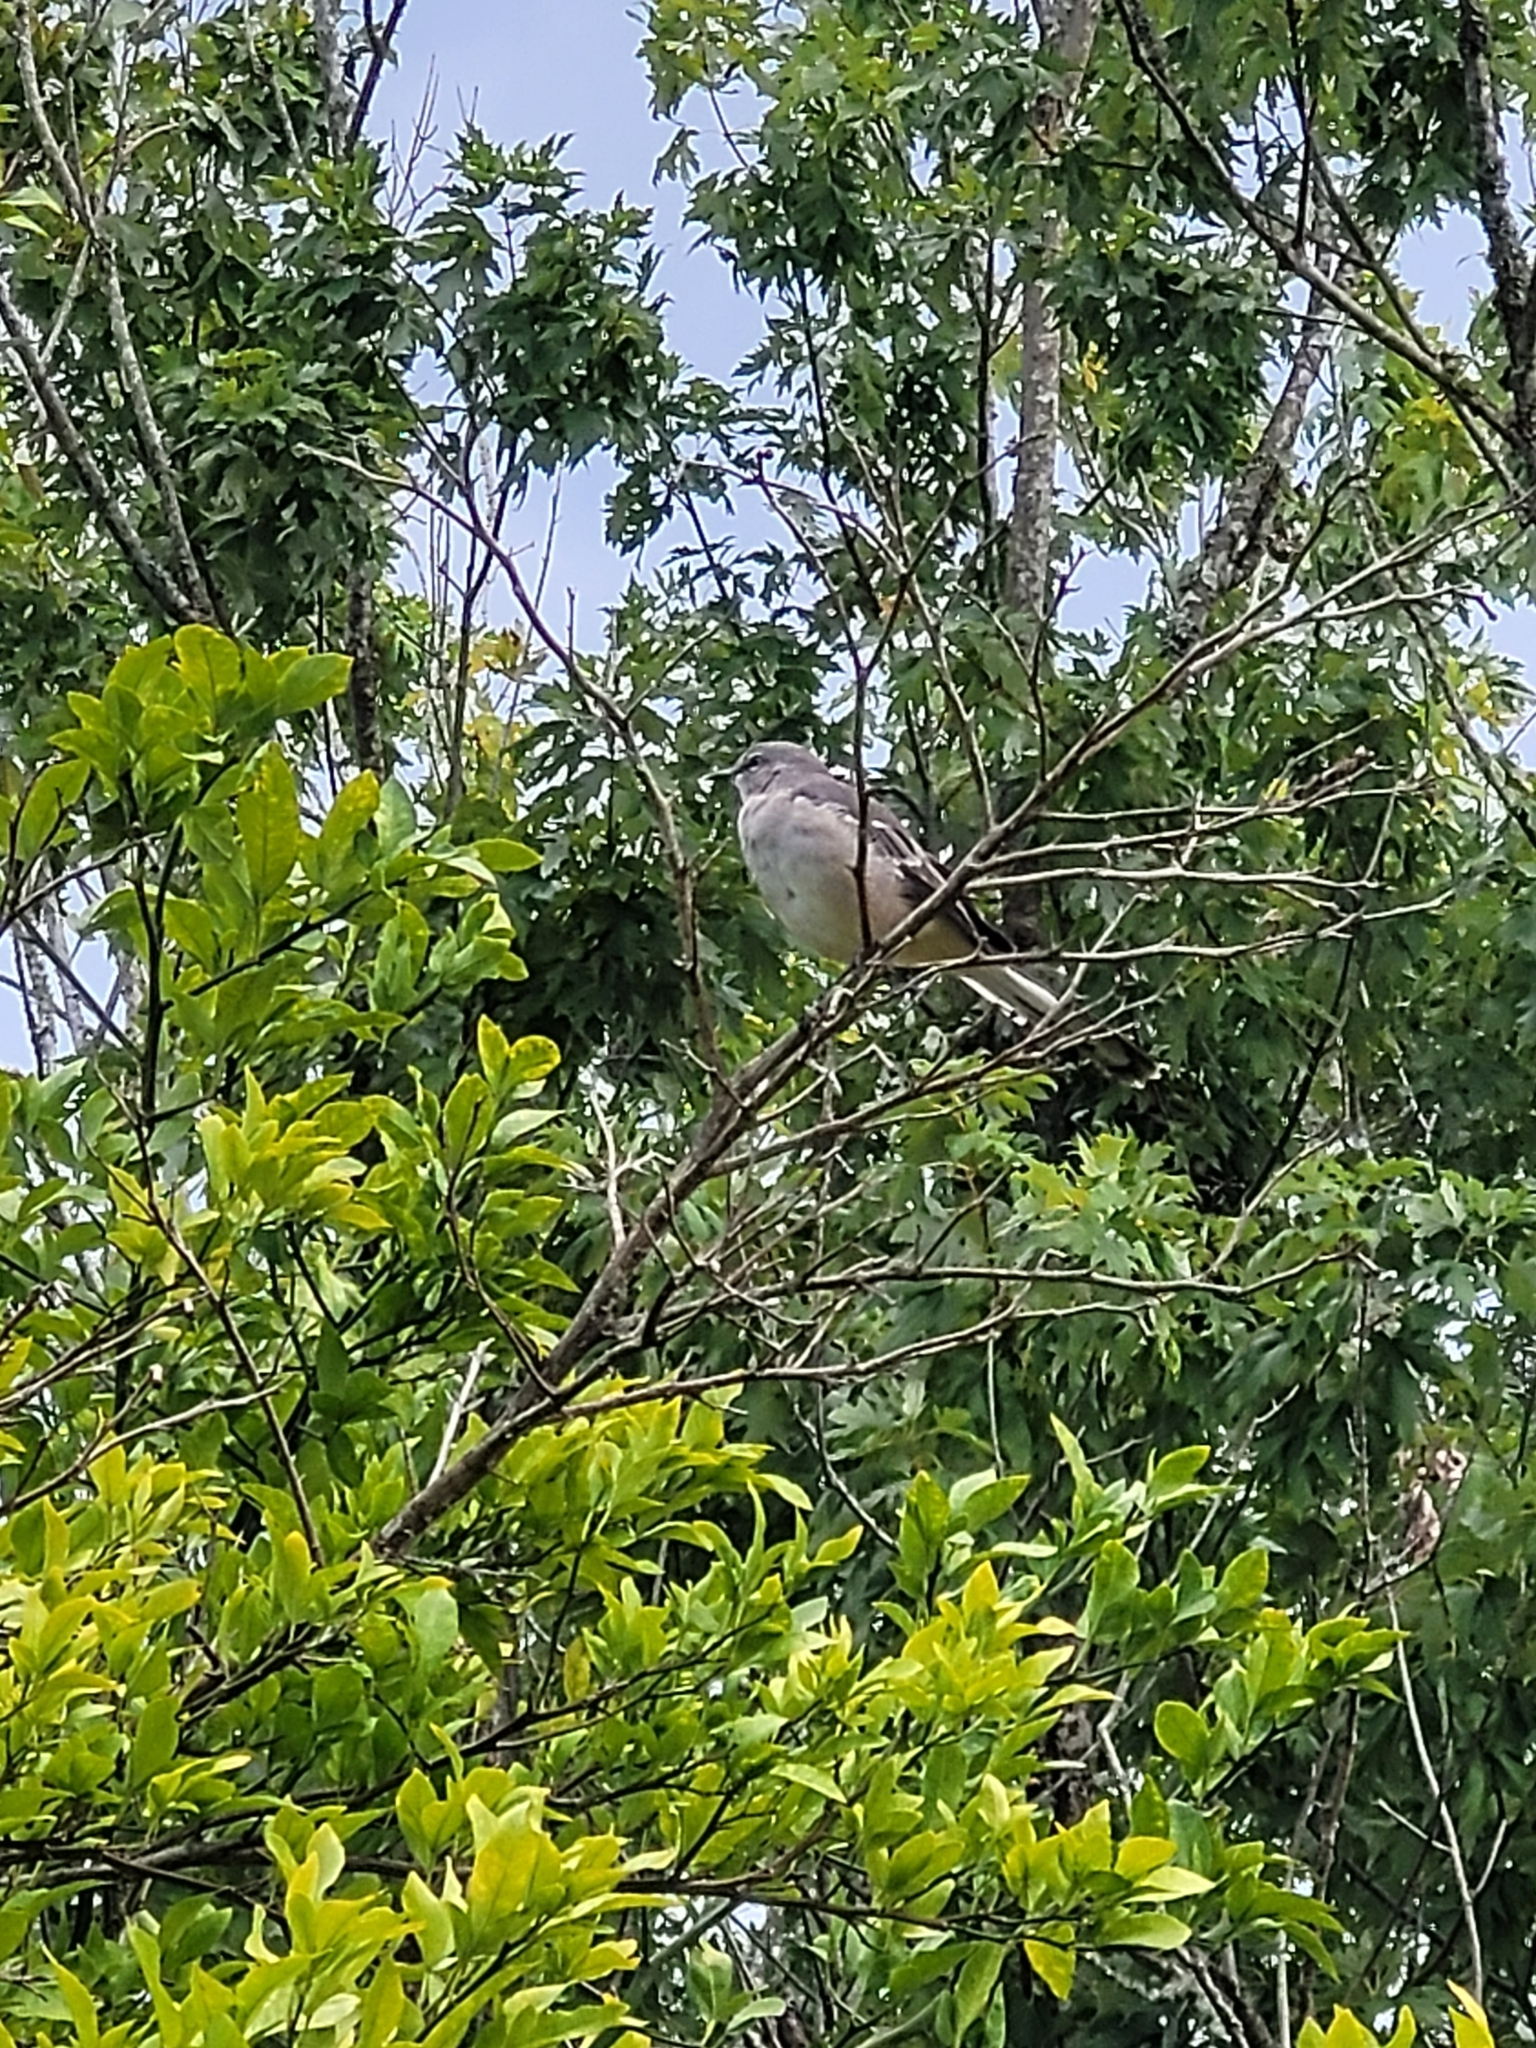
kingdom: Animalia
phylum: Chordata
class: Aves
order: Passeriformes
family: Mimidae
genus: Mimus
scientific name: Mimus polyglottos
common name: Northern mockingbird
